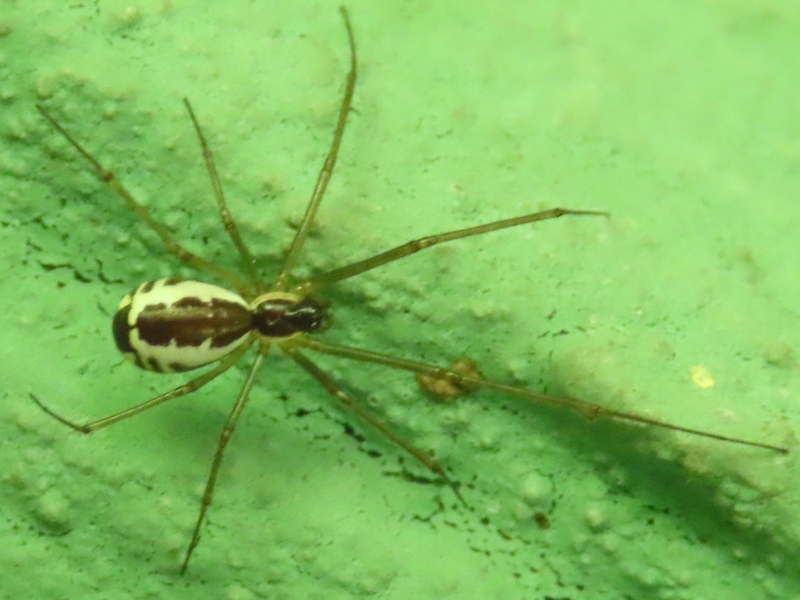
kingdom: Animalia
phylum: Arthropoda
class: Arachnida
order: Araneae
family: Linyphiidae
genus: Neriene
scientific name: Neriene radiata
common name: Filmy dome spider
